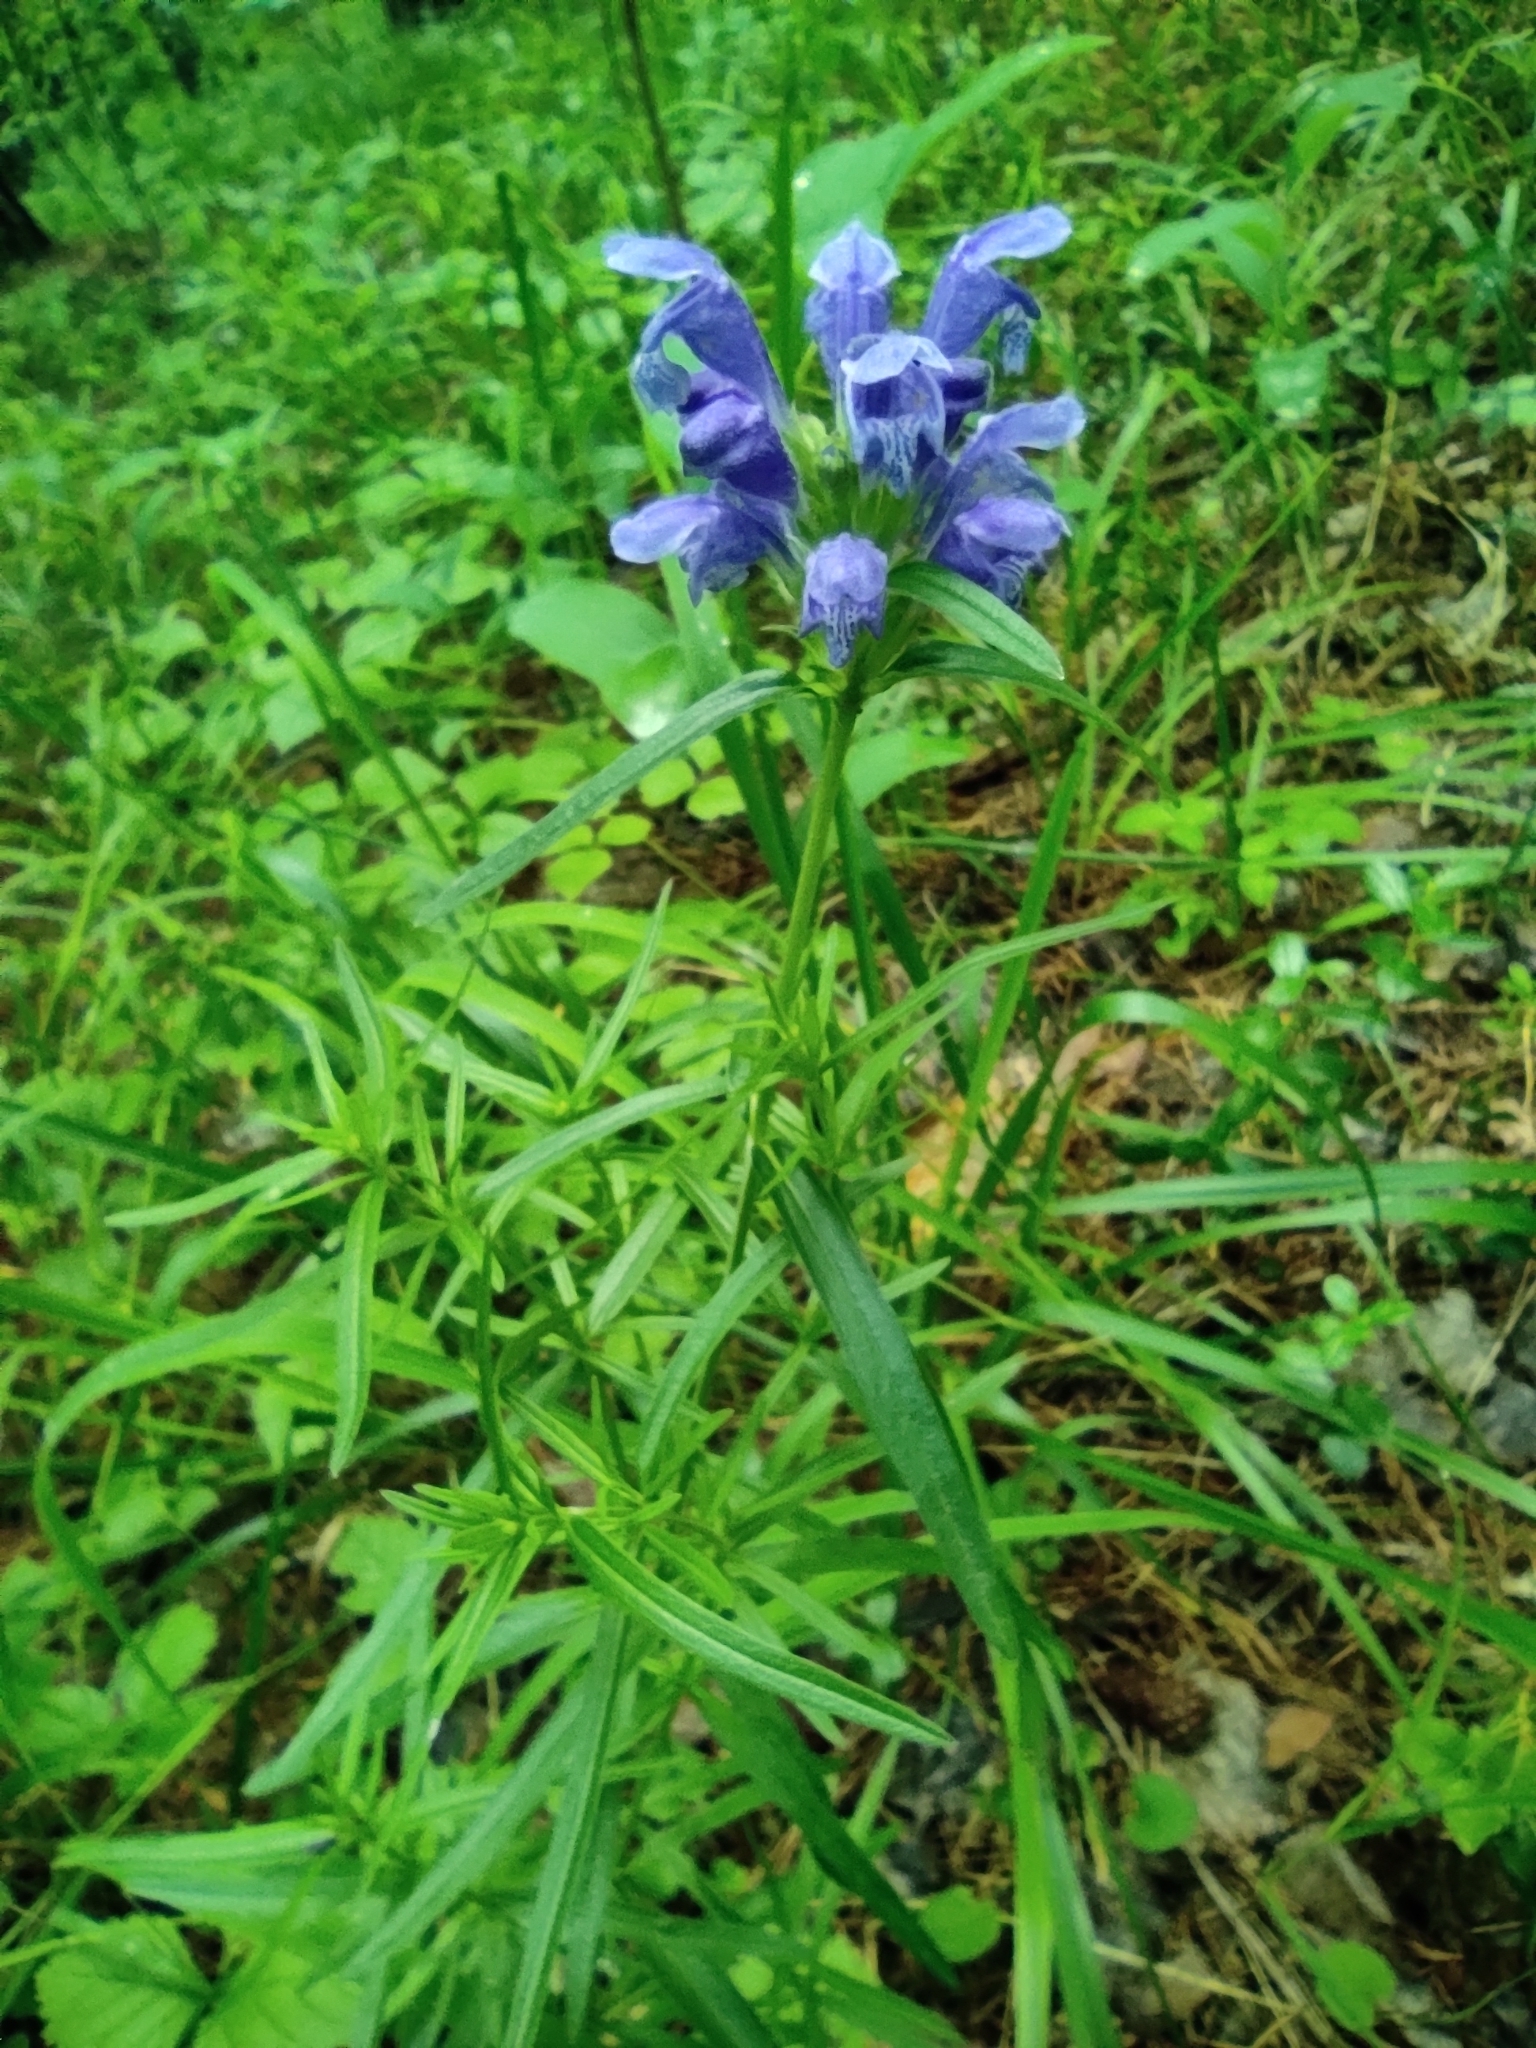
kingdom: Plantae
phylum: Tracheophyta
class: Magnoliopsida
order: Lamiales
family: Lamiaceae
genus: Dracocephalum
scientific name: Dracocephalum ruyschiana
